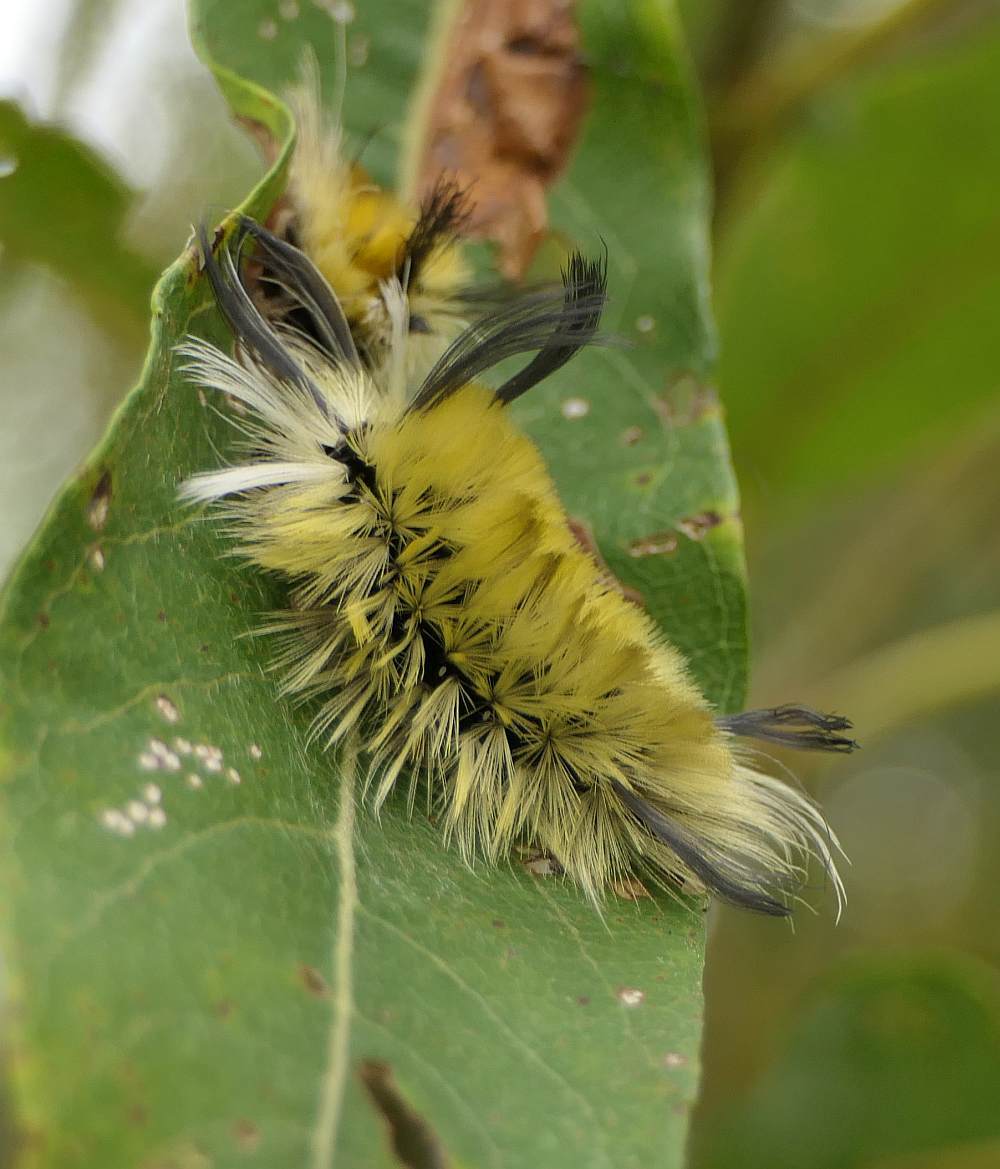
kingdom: Animalia
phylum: Arthropoda
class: Insecta
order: Lepidoptera
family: Erebidae
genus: Halysidota
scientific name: Halysidota tessellaris
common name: Banded tussock moth
